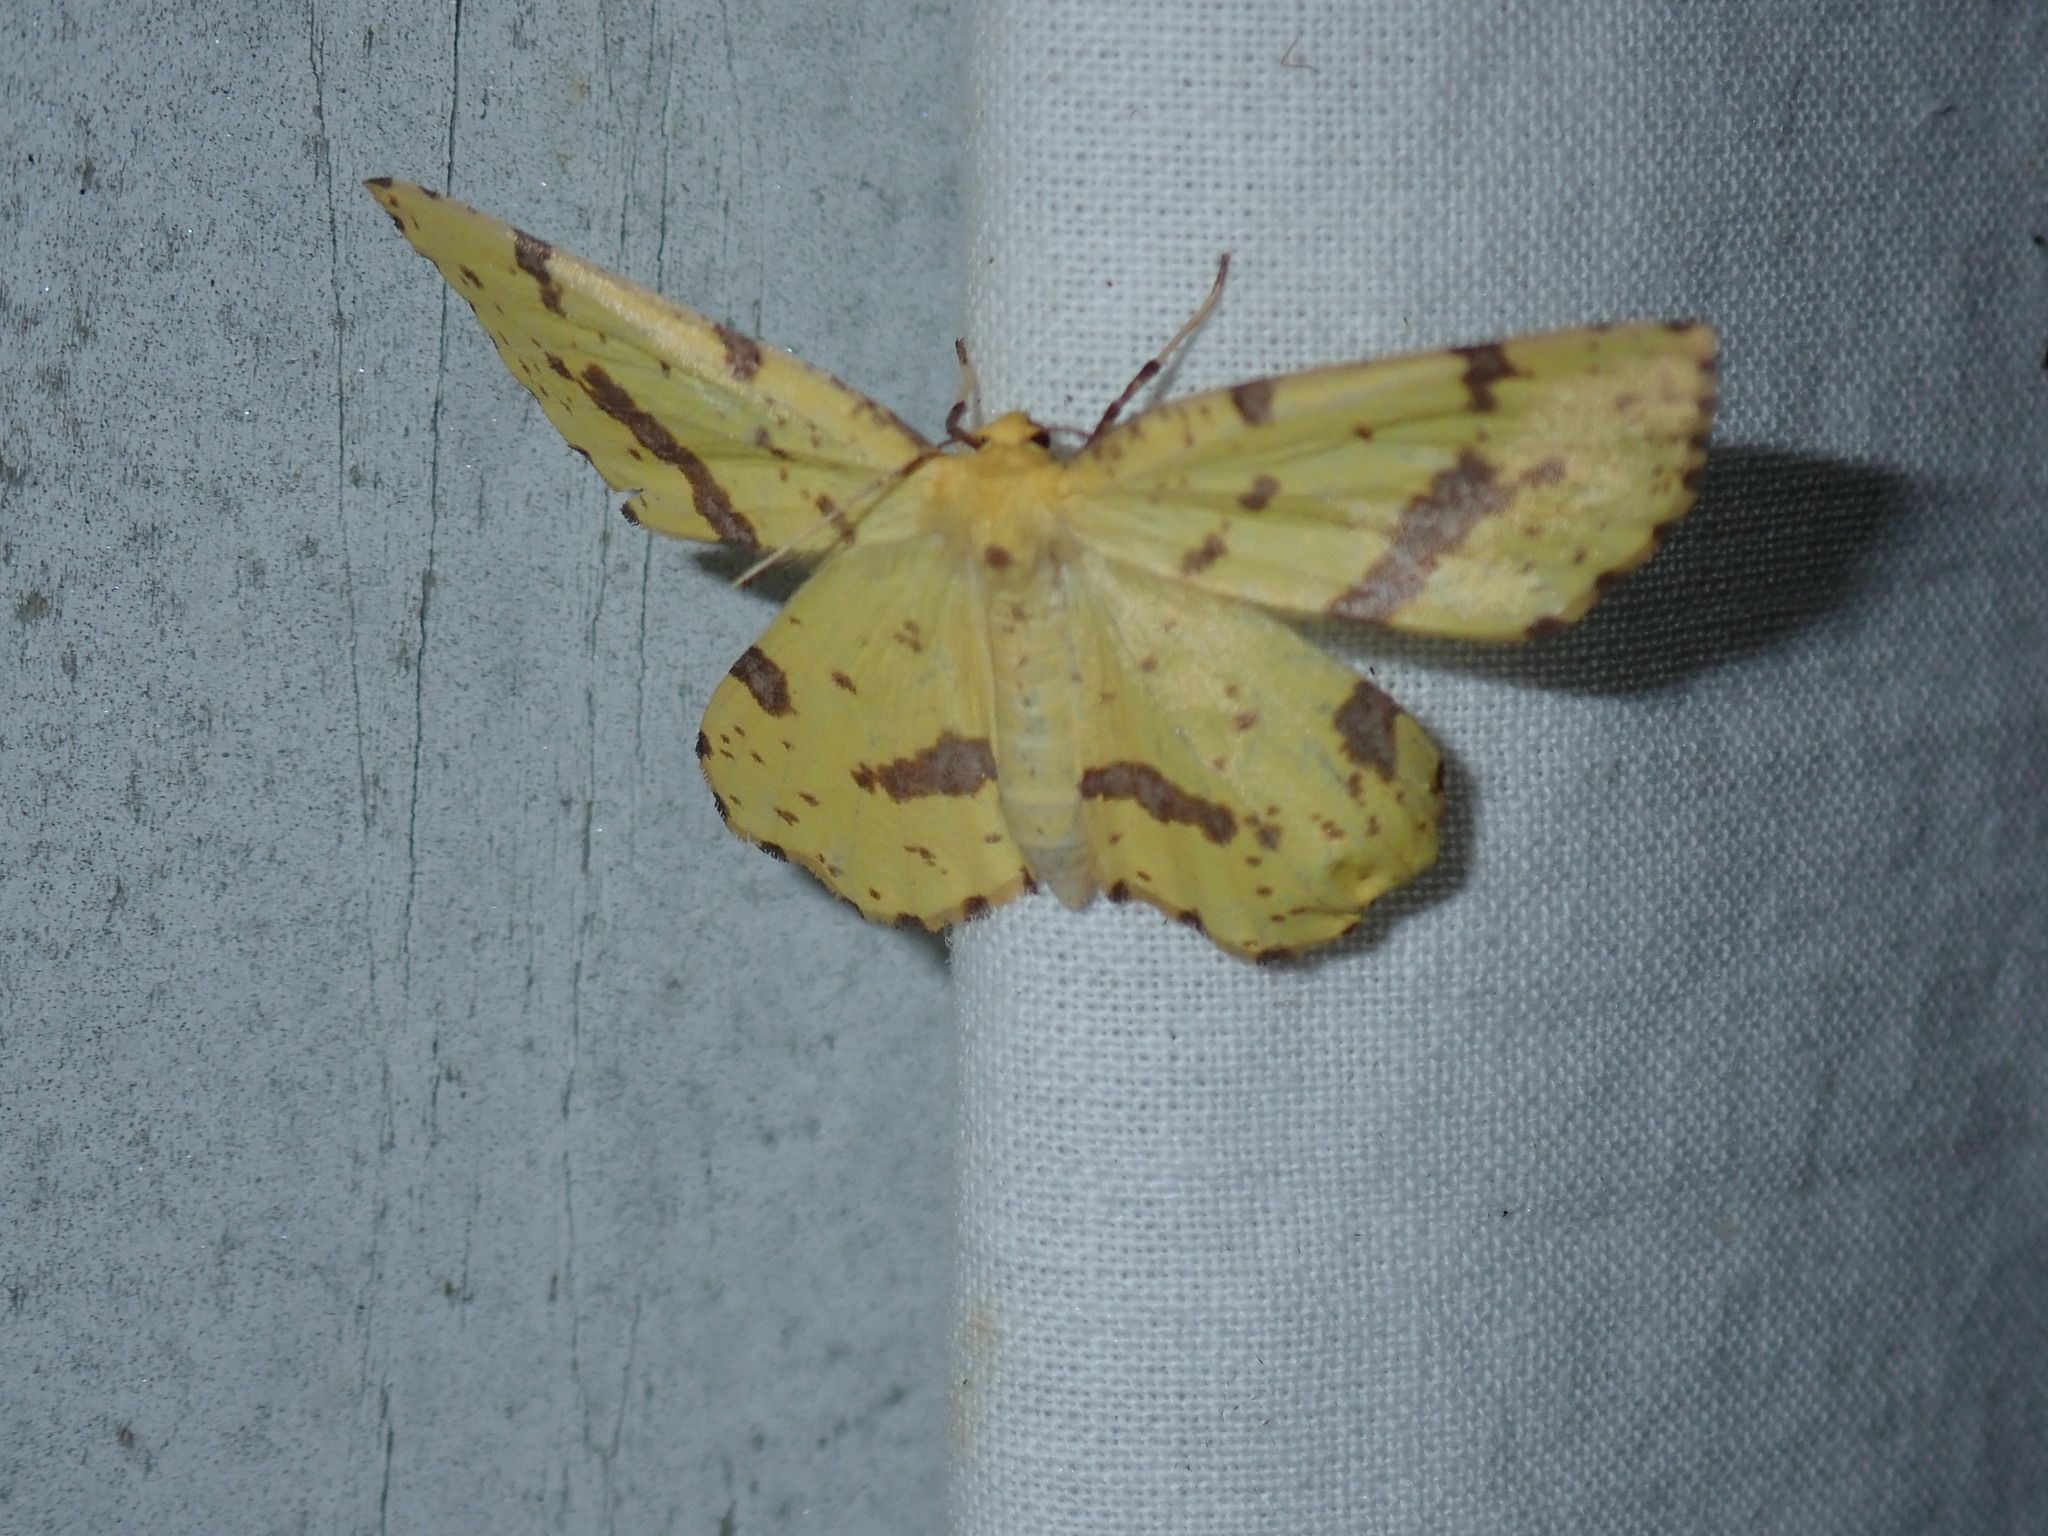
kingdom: Animalia
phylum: Arthropoda
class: Insecta
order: Lepidoptera
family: Geometridae
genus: Xanthotype
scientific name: Xanthotype
